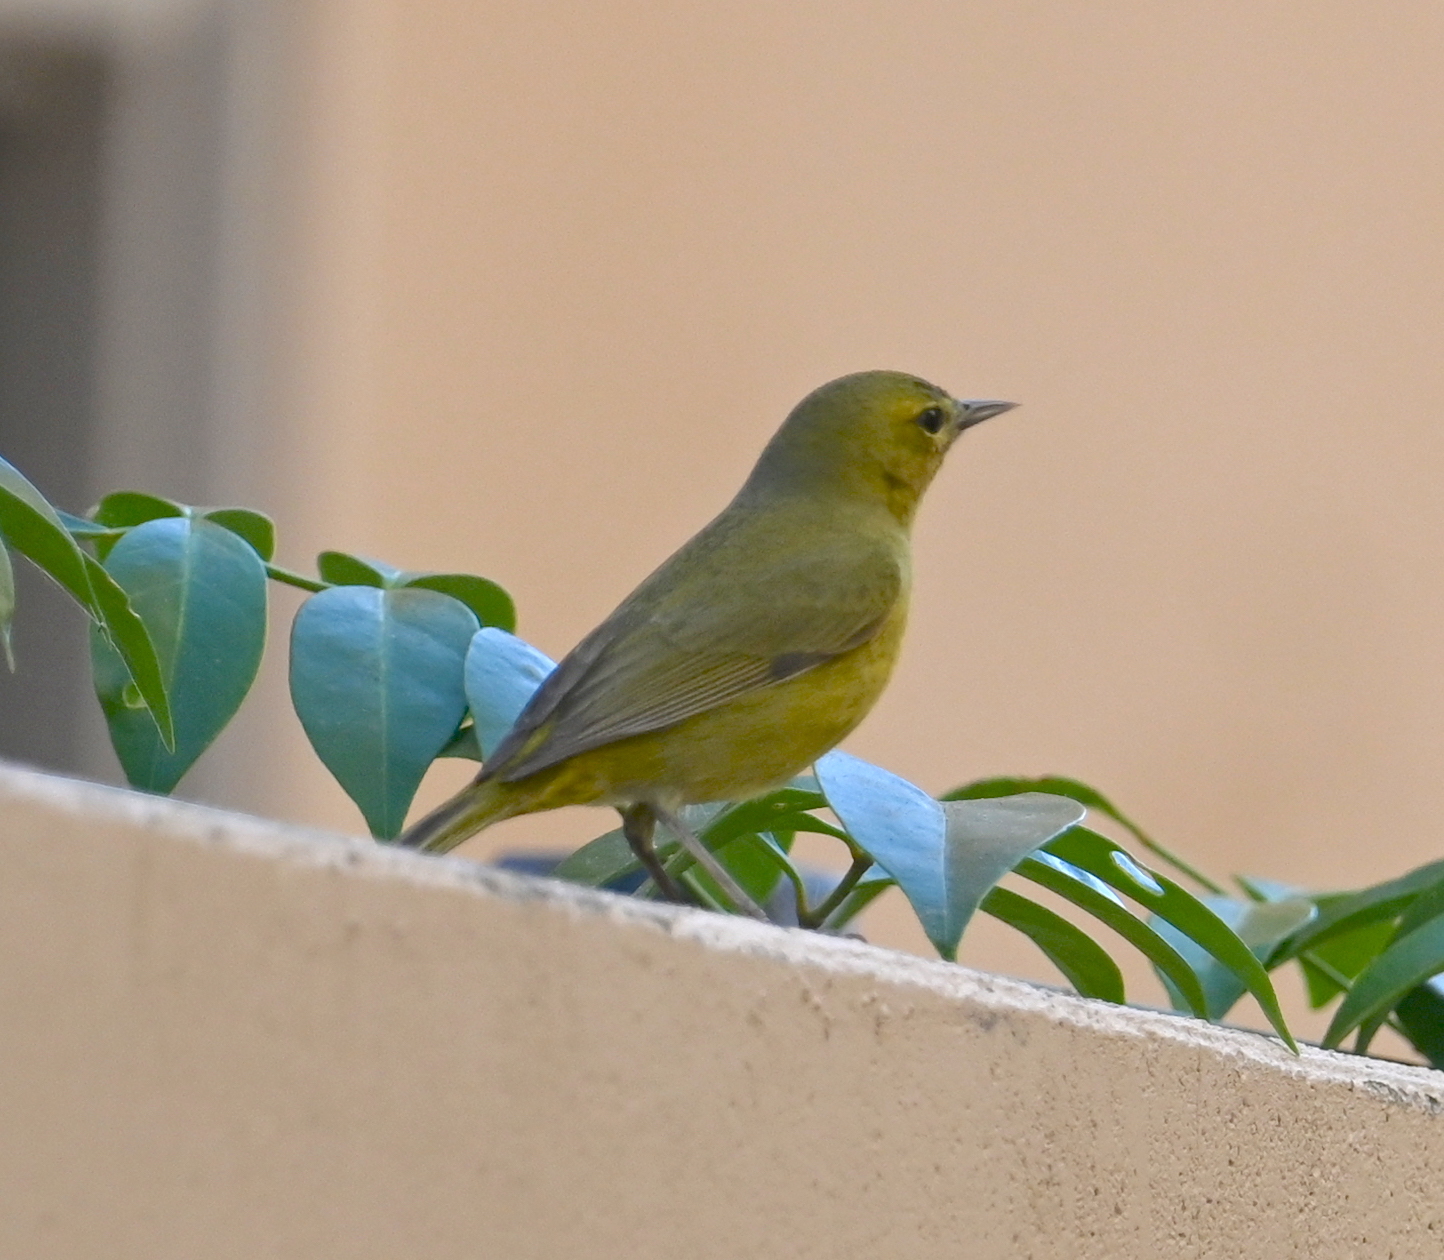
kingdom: Animalia
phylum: Chordata
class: Aves
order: Passeriformes
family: Parulidae
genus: Leiothlypis
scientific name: Leiothlypis celata
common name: Orange-crowned warbler
